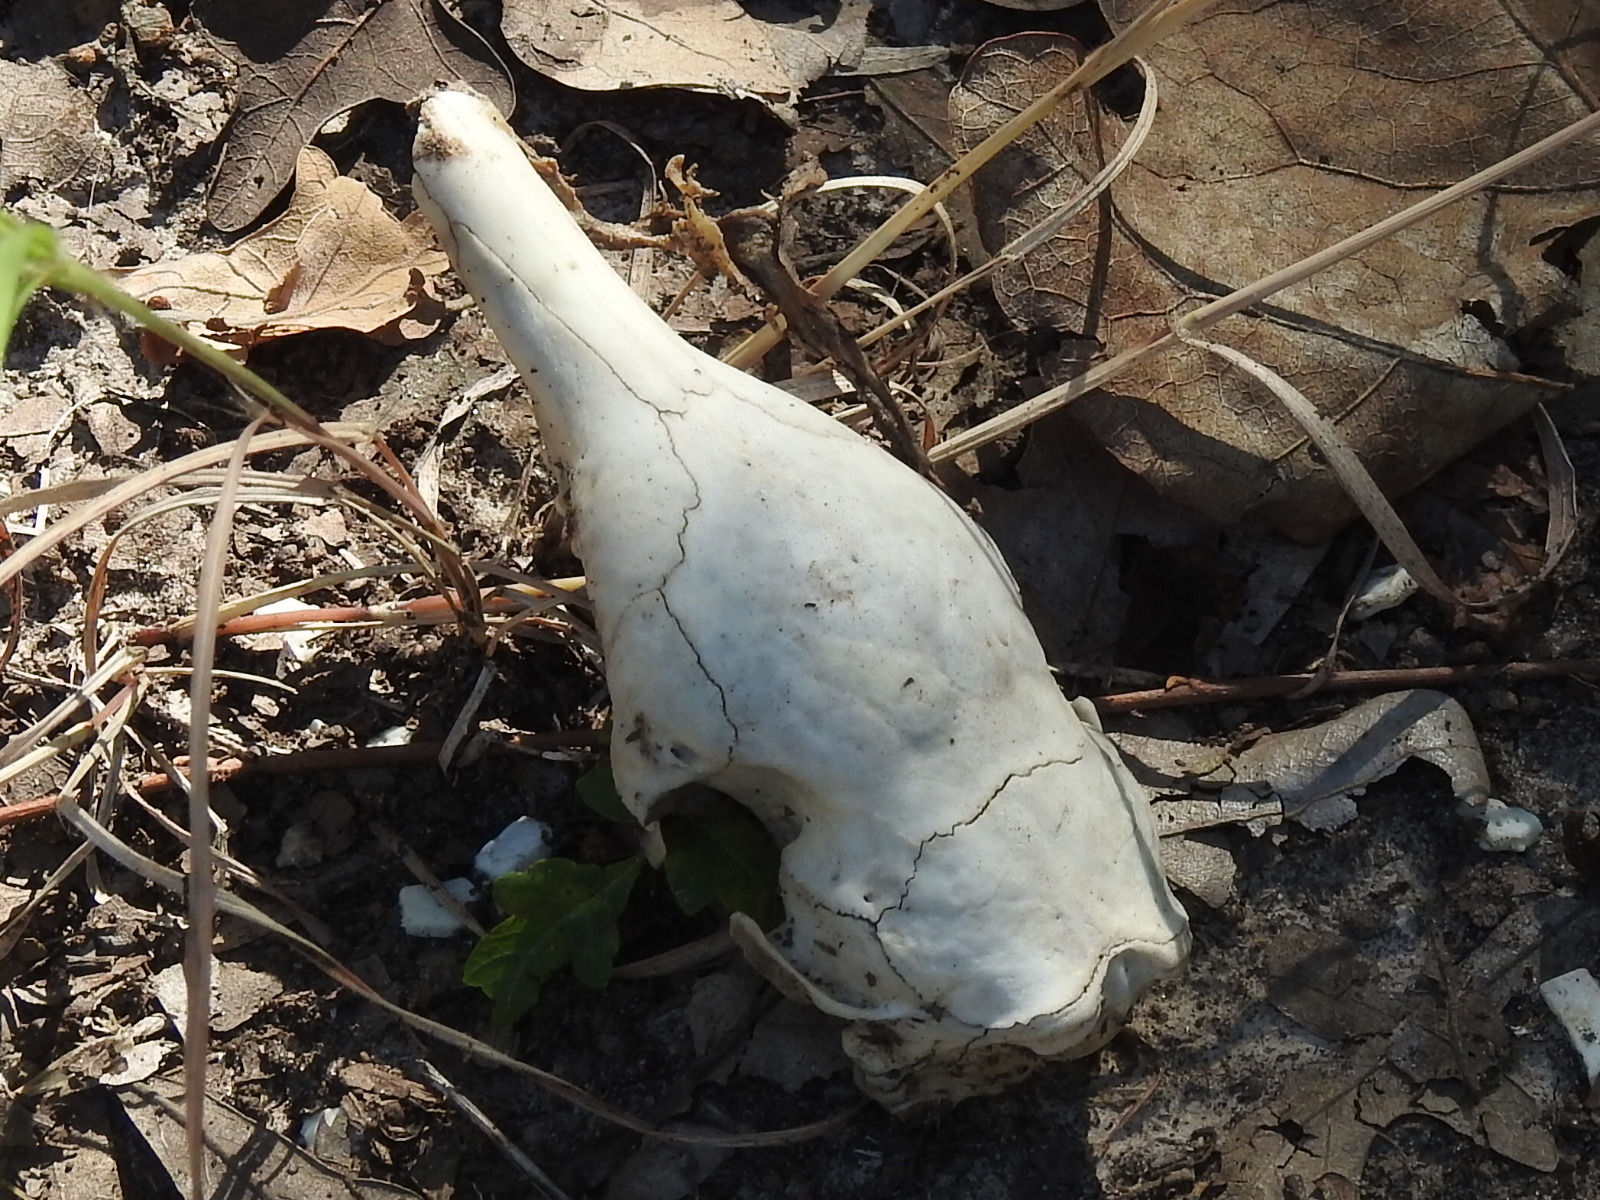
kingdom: Animalia
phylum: Chordata
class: Mammalia
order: Cingulata
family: Dasypodidae
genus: Dasypus
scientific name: Dasypus novemcinctus
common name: Nine-banded armadillo
